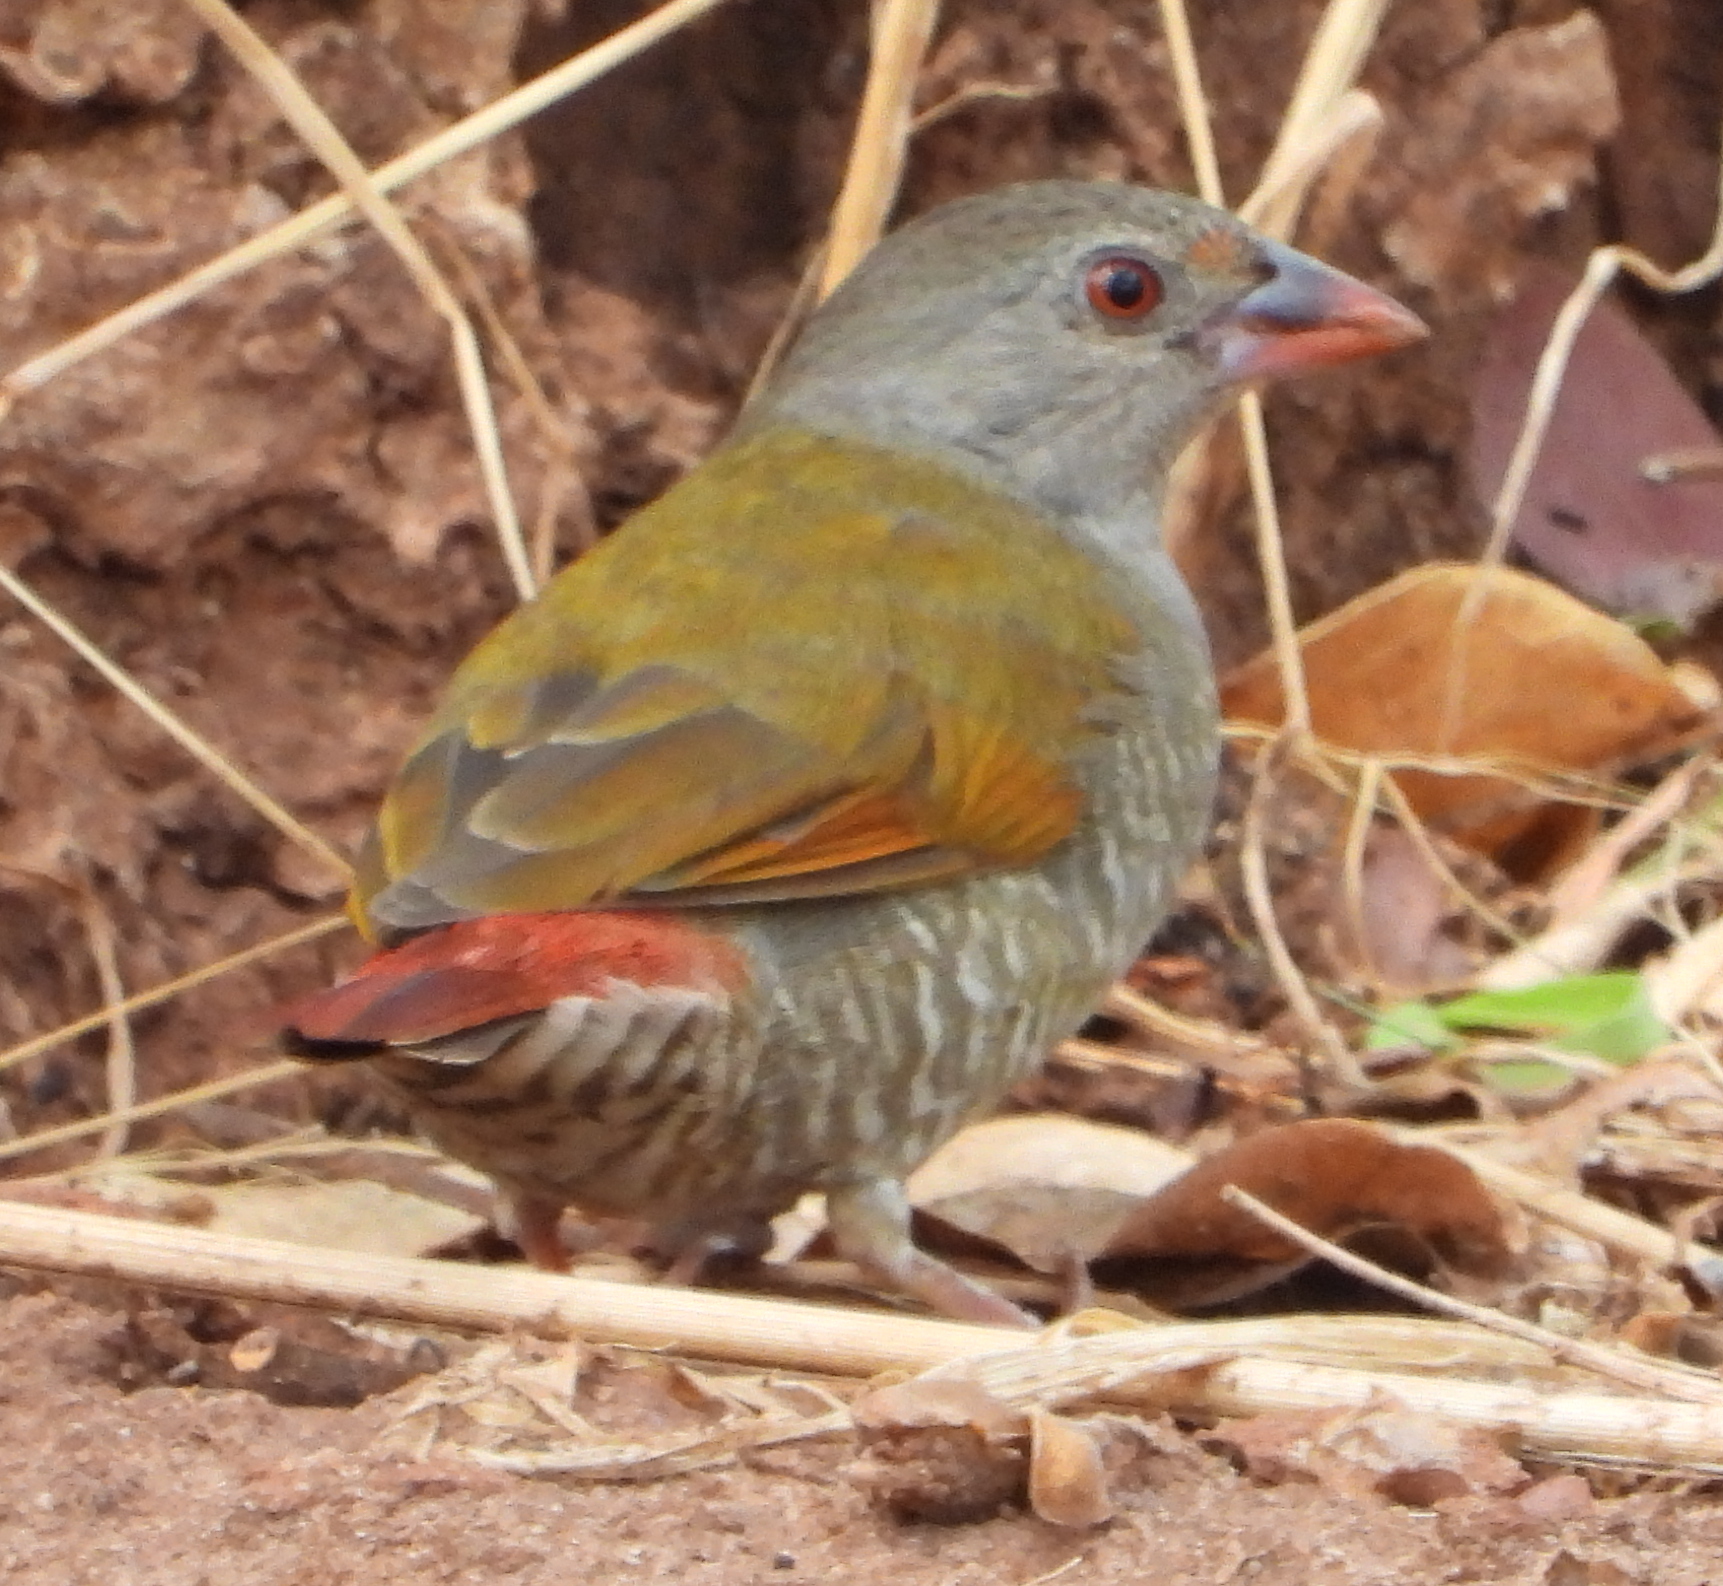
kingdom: Animalia
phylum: Chordata
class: Aves
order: Passeriformes
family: Estrildidae
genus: Pytilia
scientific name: Pytilia afra
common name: Orange-winged pytilia
